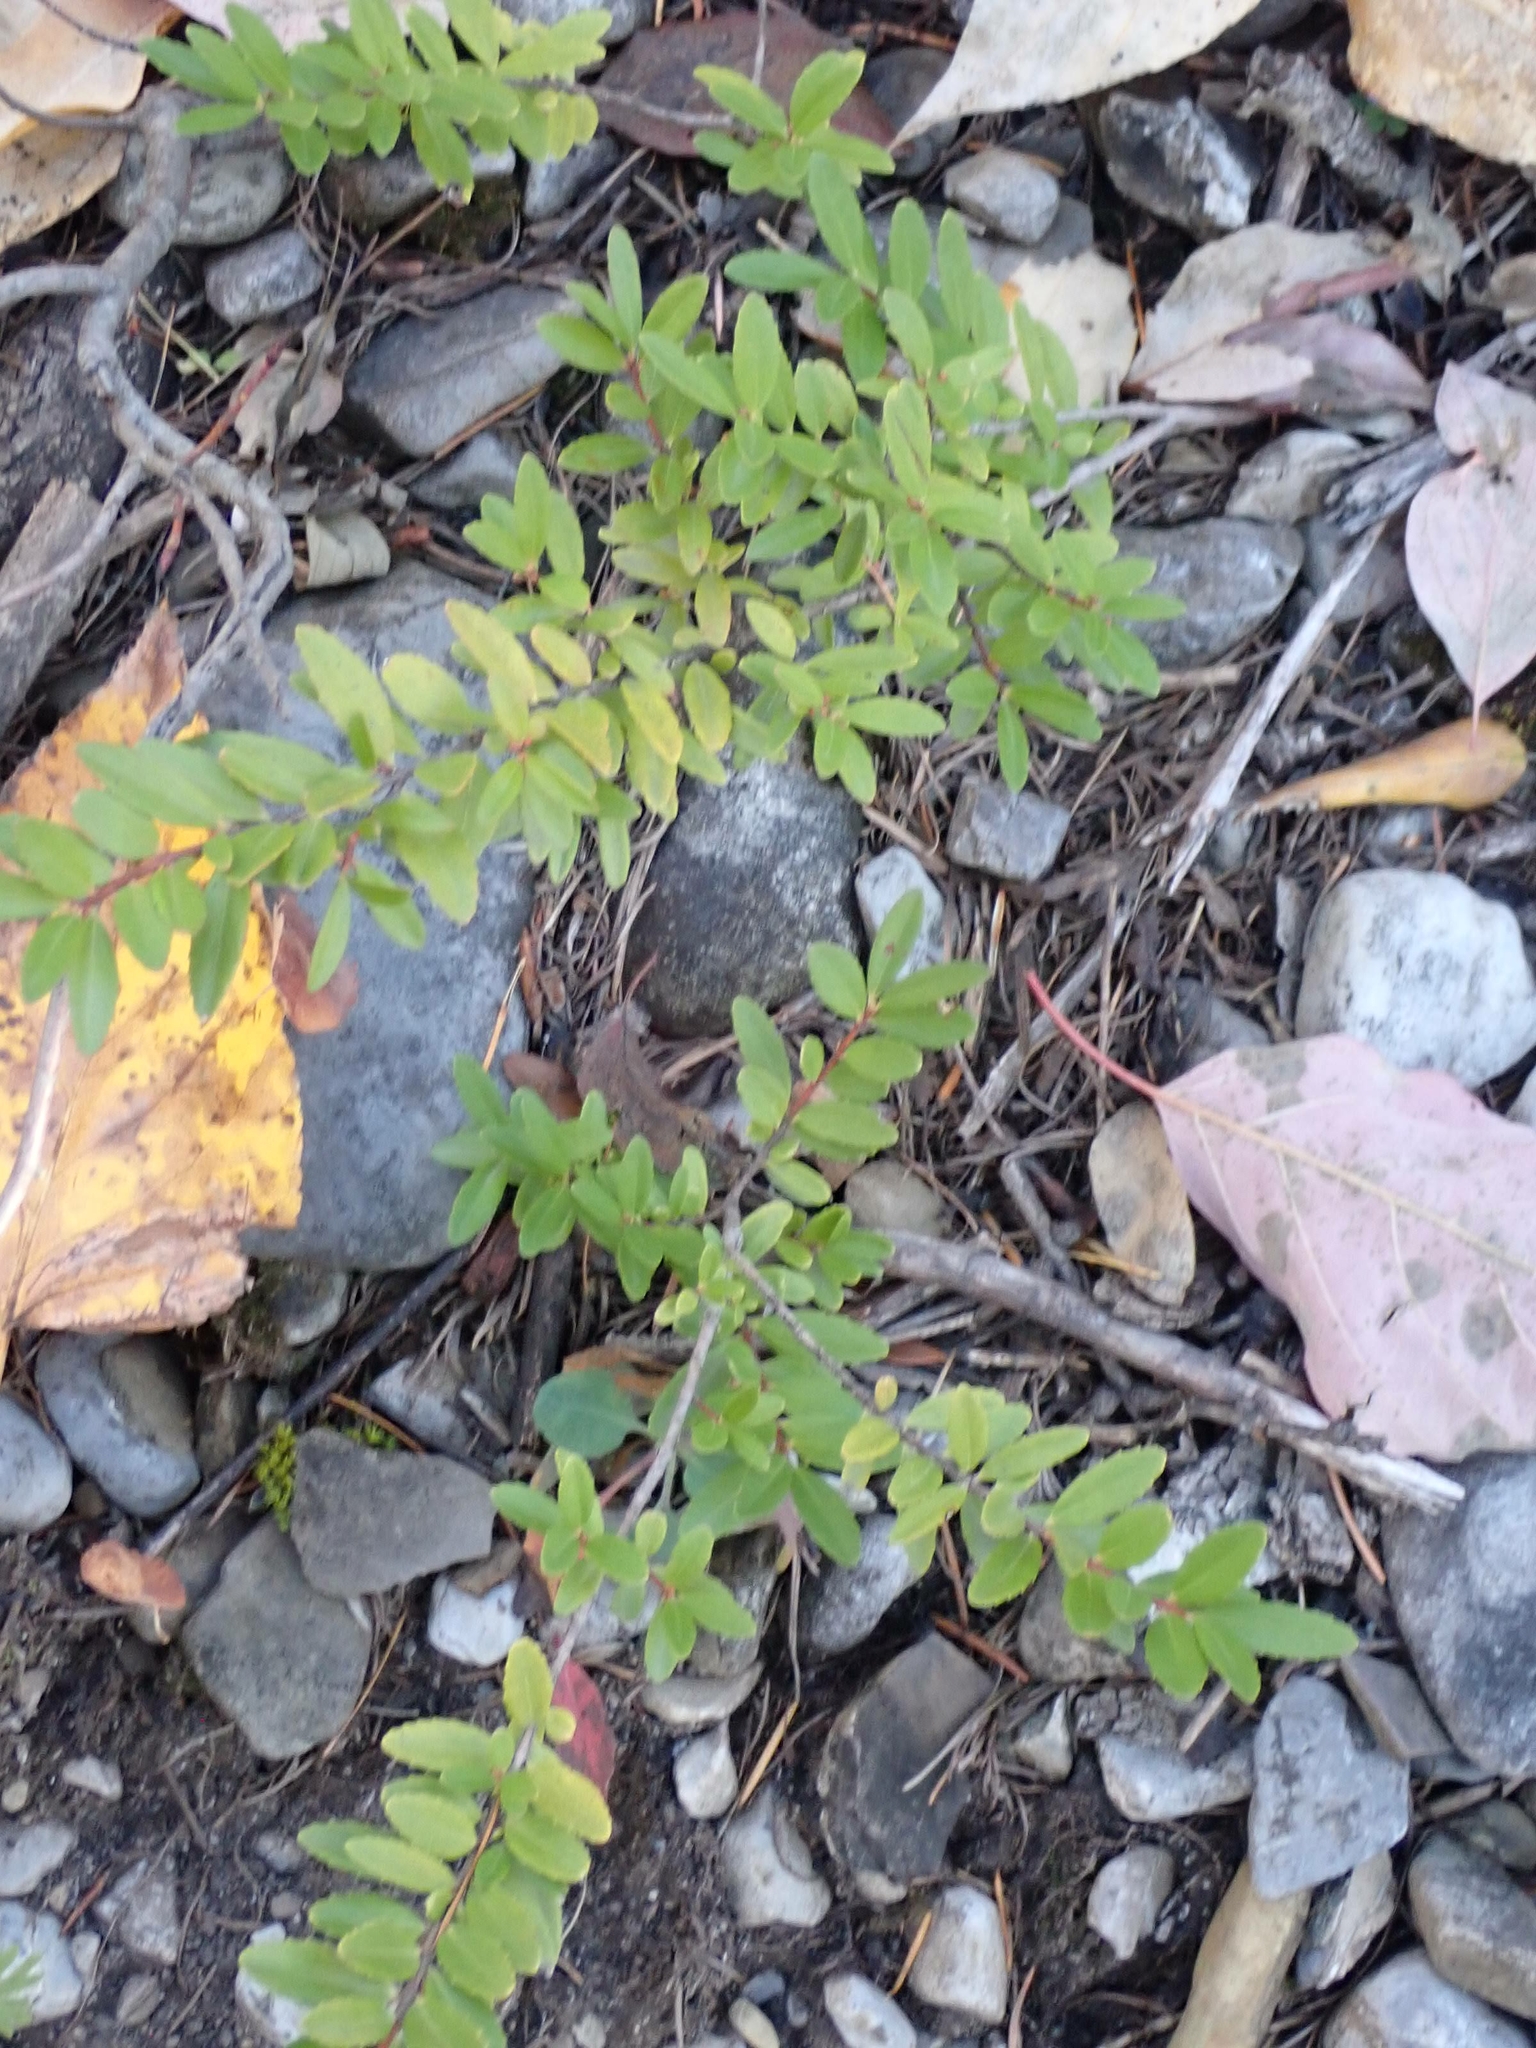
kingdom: Plantae
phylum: Tracheophyta
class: Magnoliopsida
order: Celastrales
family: Celastraceae
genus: Paxistima
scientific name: Paxistima myrsinites
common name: Mountain-lover
